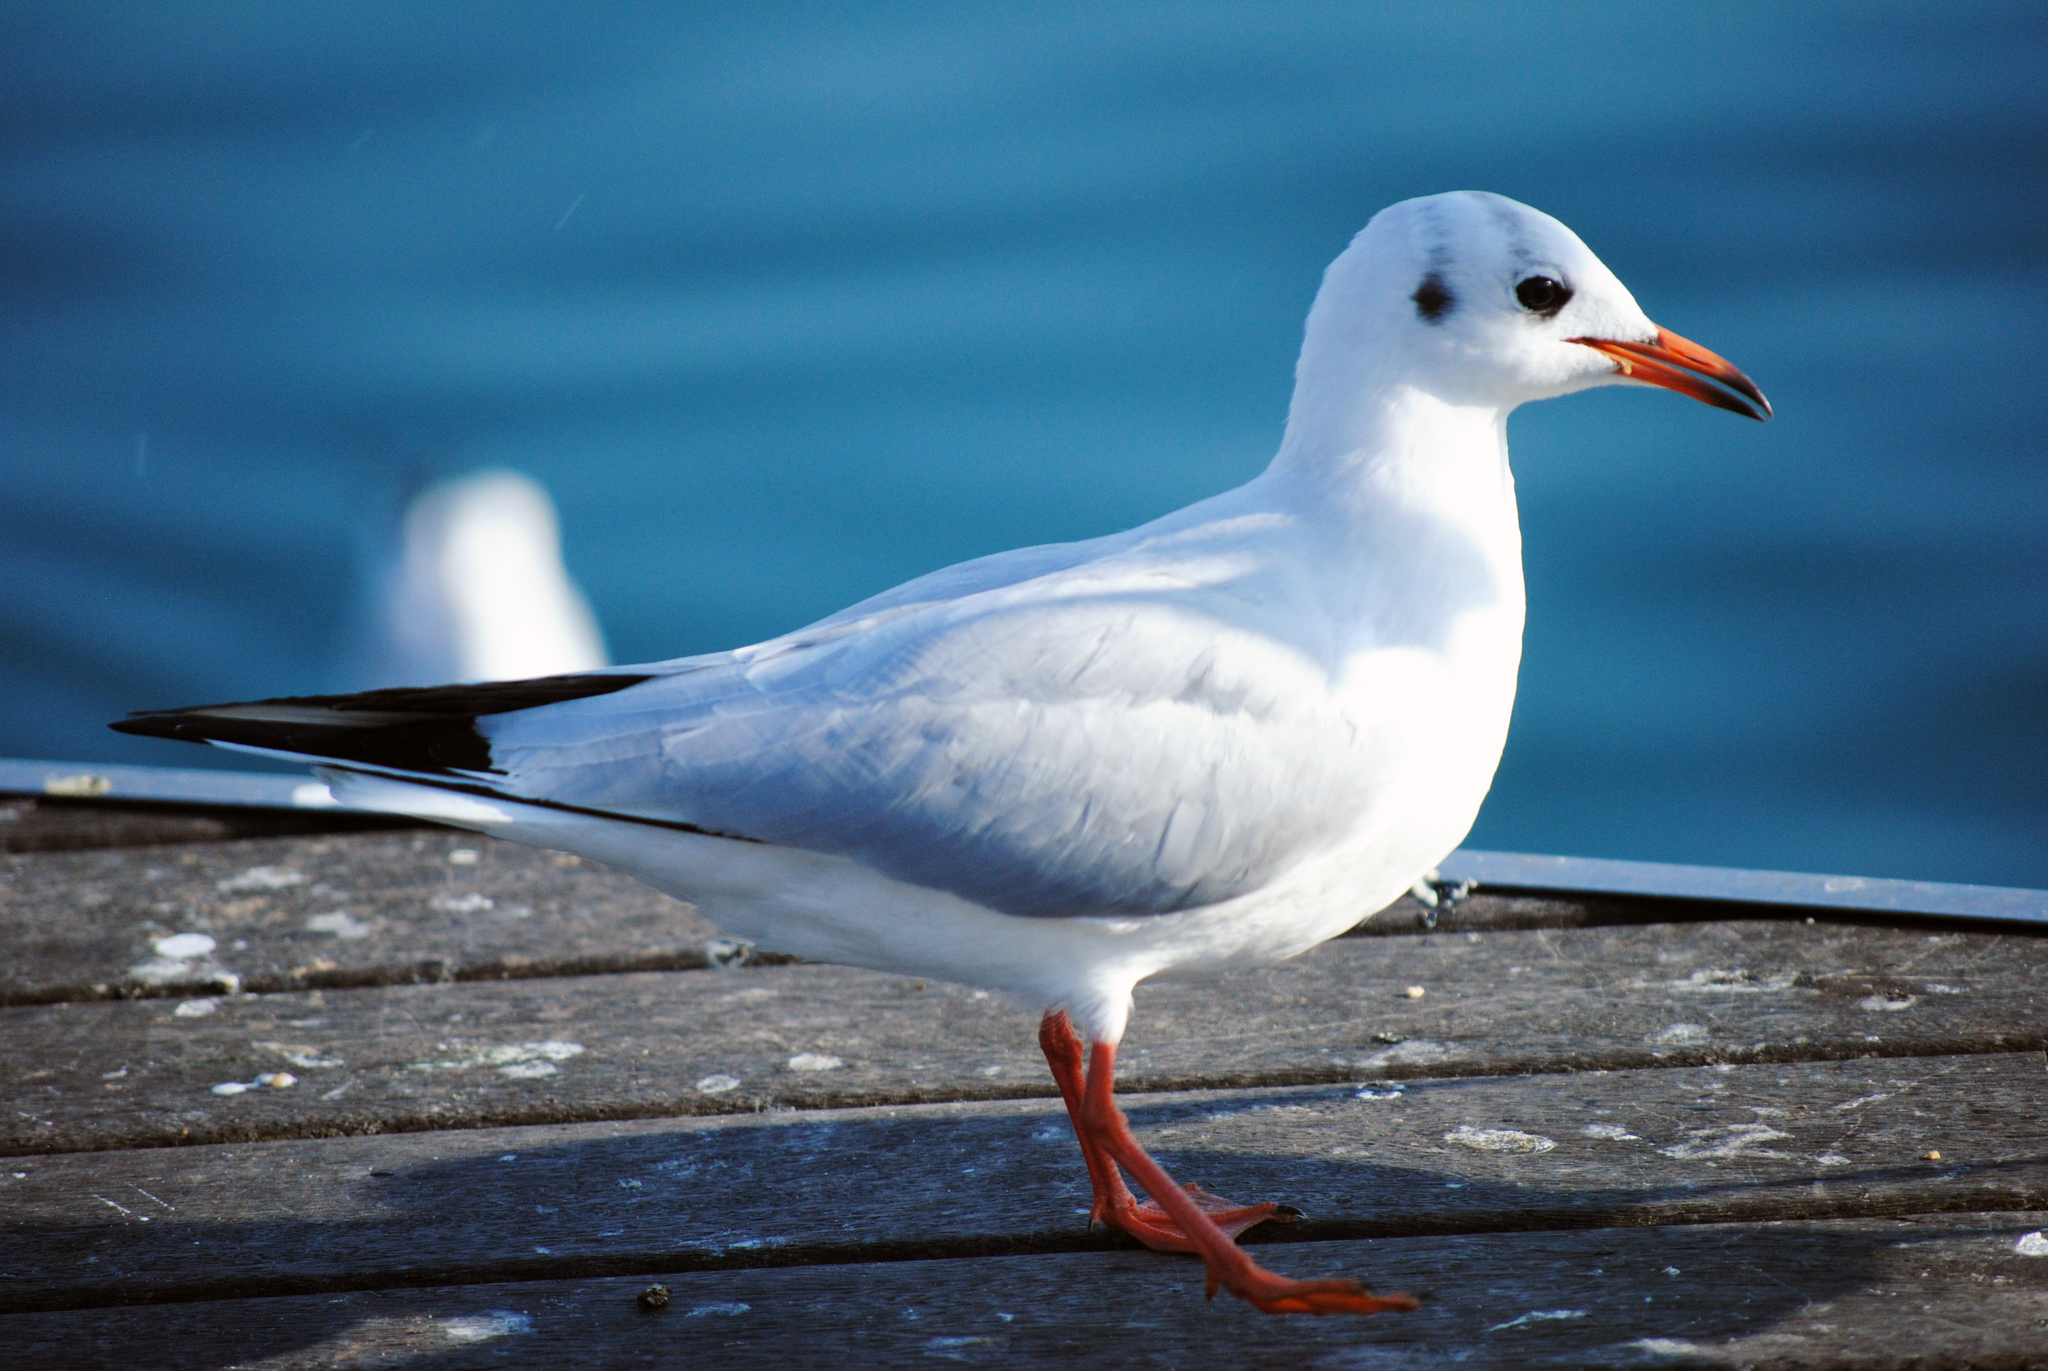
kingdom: Animalia
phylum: Chordata
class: Aves
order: Charadriiformes
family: Laridae
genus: Chroicocephalus
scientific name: Chroicocephalus ridibundus
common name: Black-headed gull
